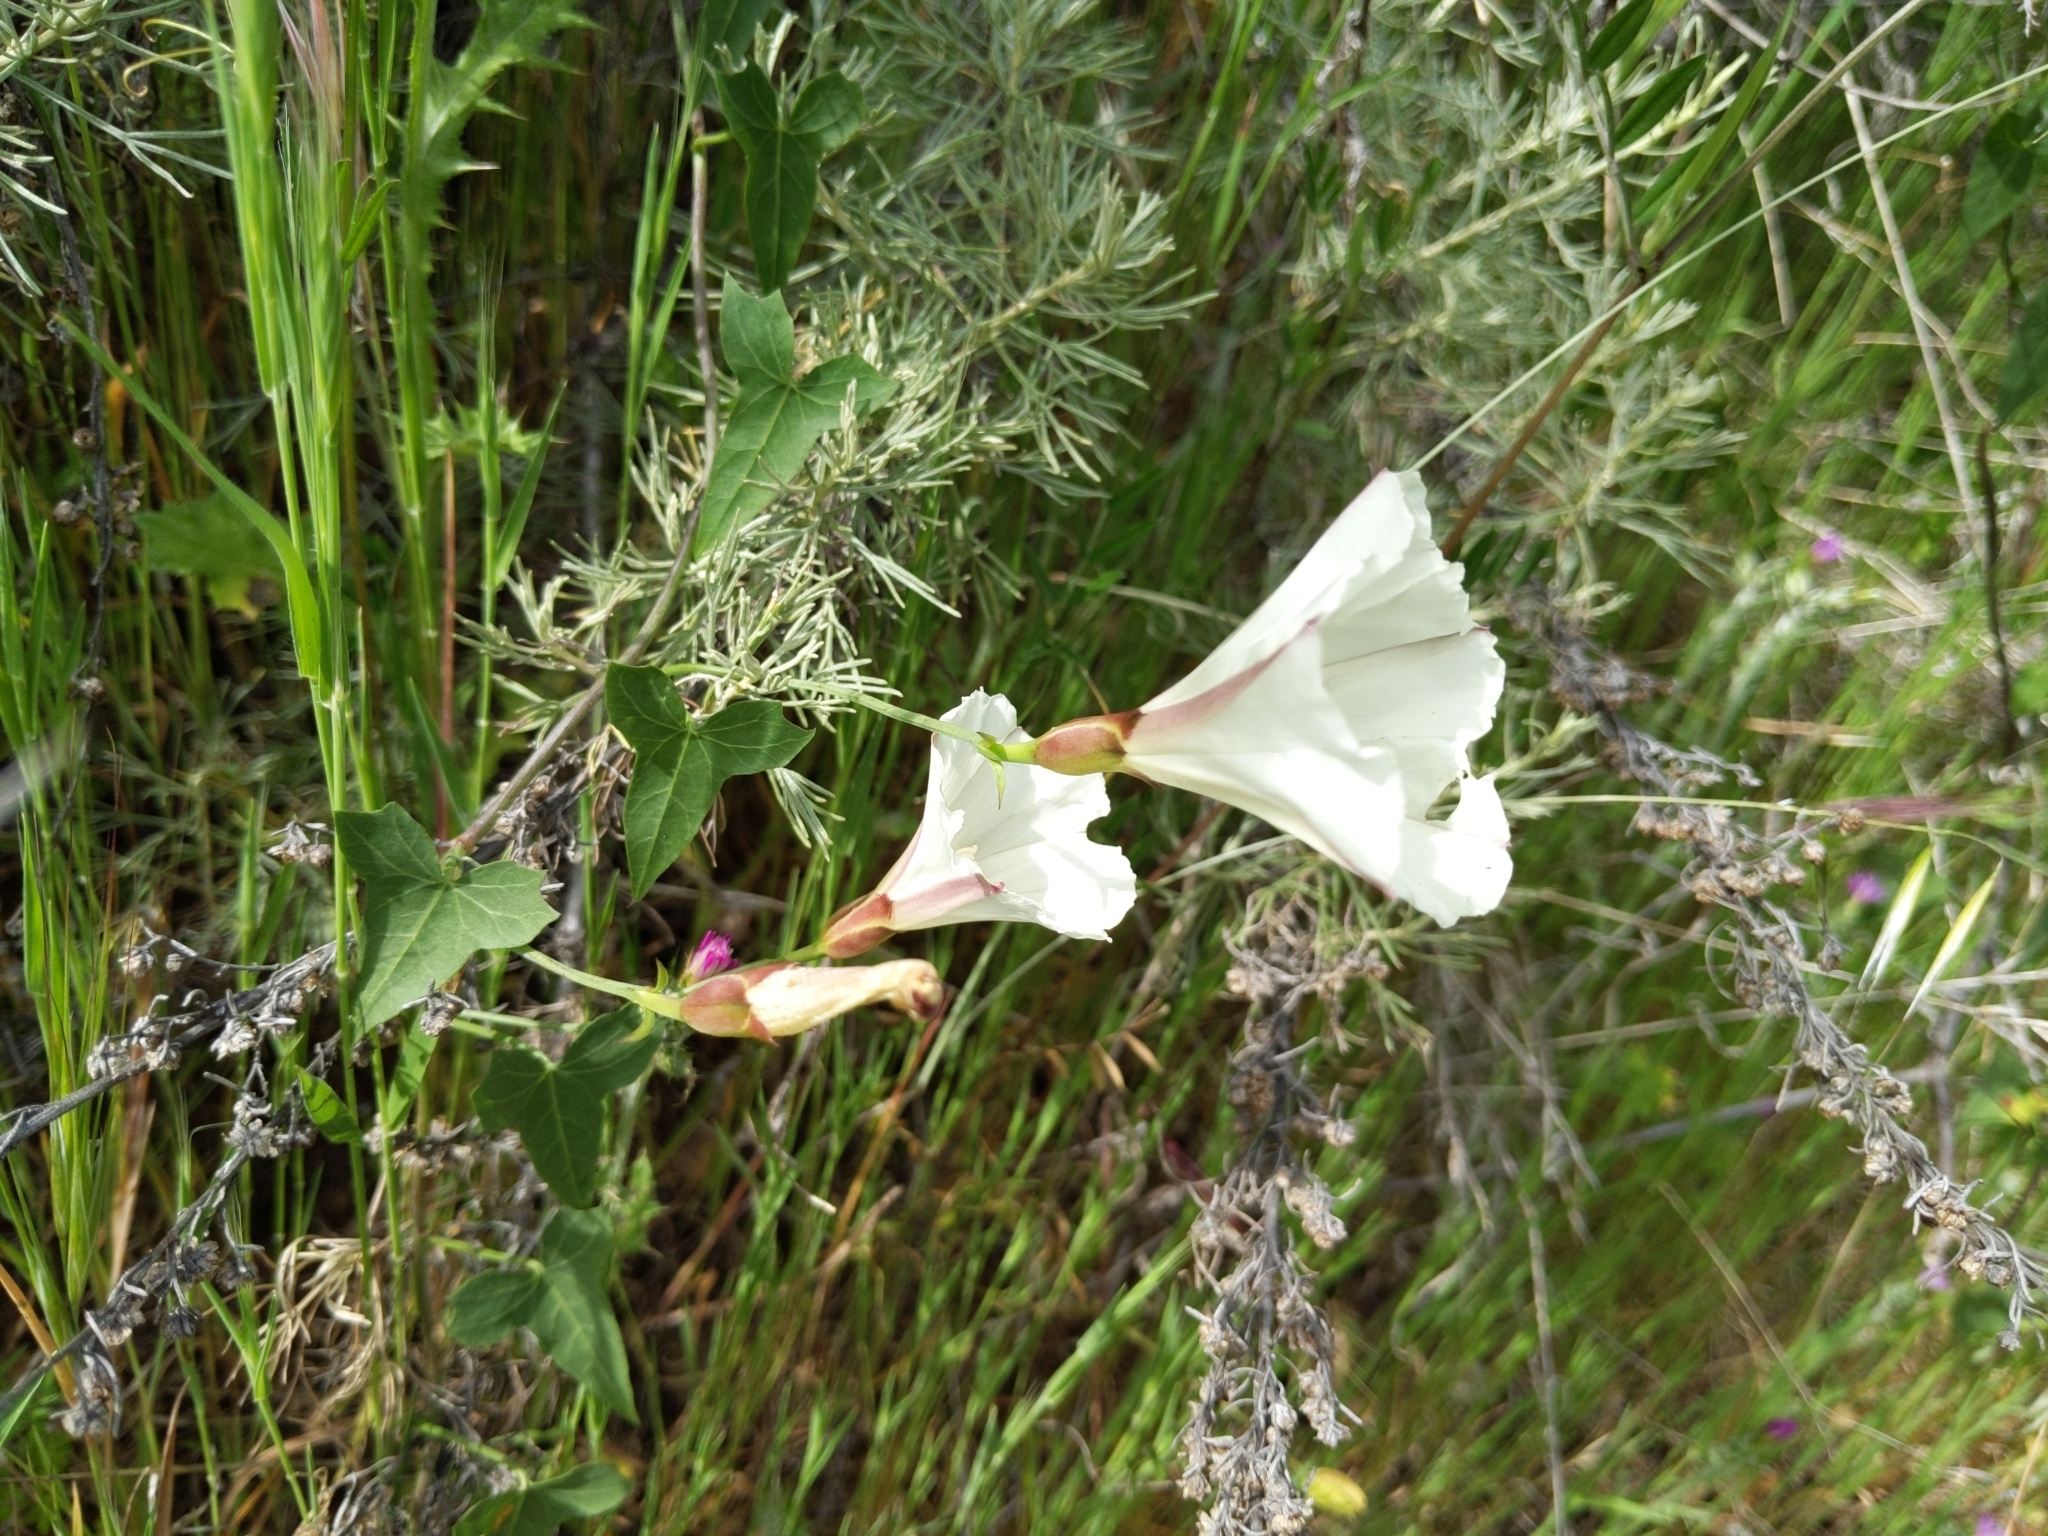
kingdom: Plantae
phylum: Tracheophyta
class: Magnoliopsida
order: Solanales
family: Convolvulaceae
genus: Calystegia
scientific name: Calystegia purpurata
